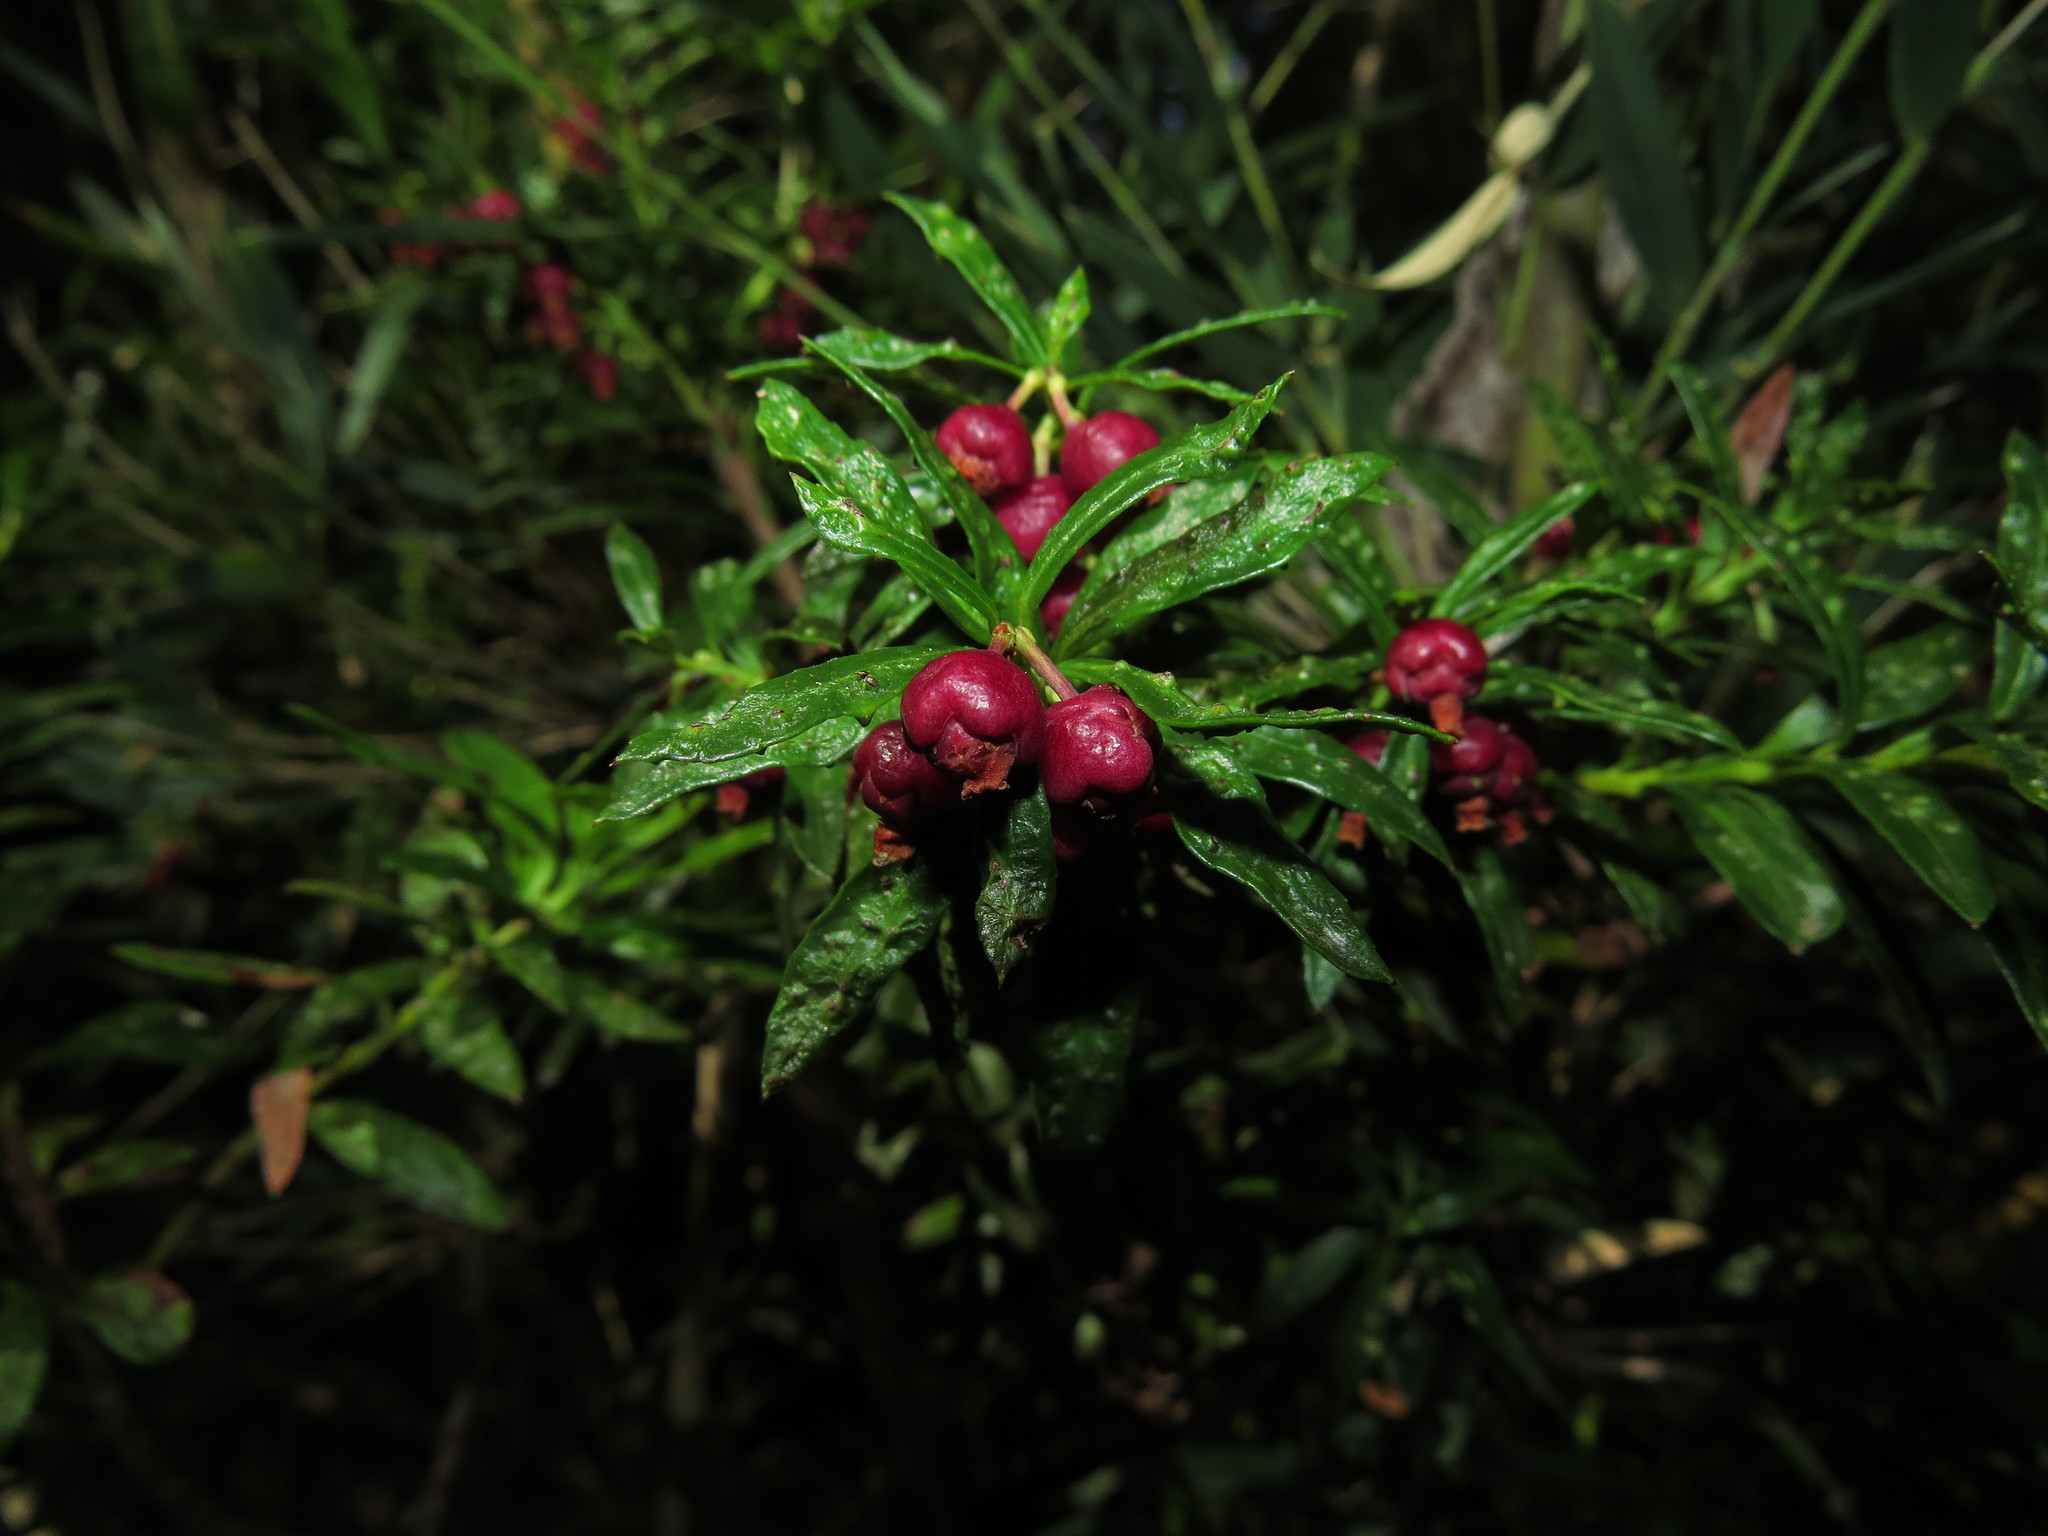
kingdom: Plantae
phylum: Tracheophyta
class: Magnoliopsida
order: Ericales
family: Ericaceae
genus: Gaultheria
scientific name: Gaultheria tenuifolia
